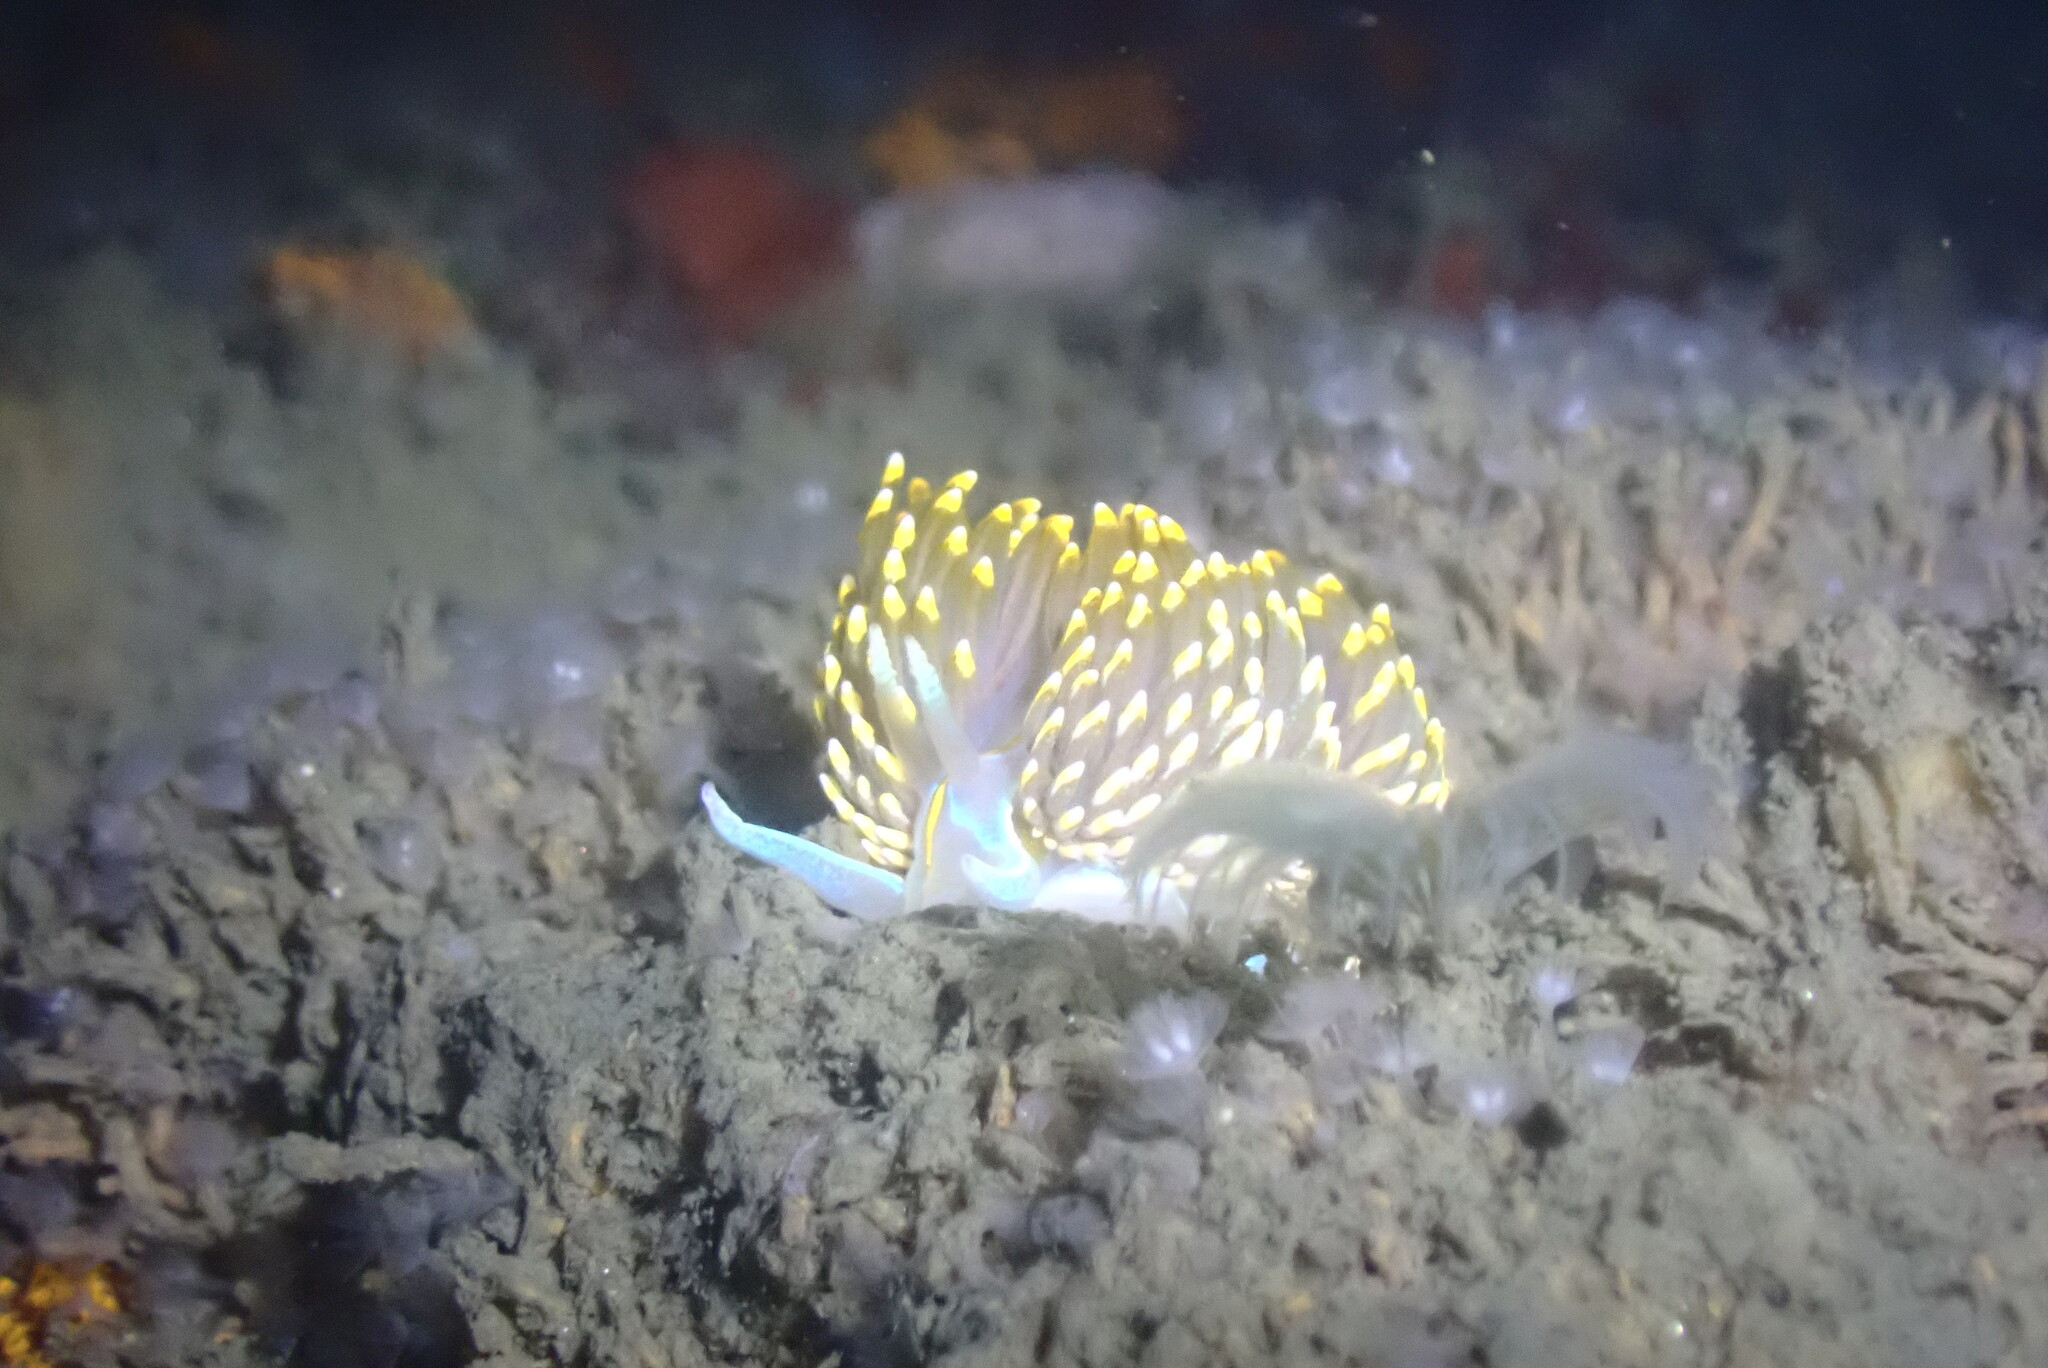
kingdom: Animalia
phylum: Mollusca
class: Gastropoda
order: Nudibranchia
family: Myrrhinidae
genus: Hermissenda
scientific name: Hermissenda opalescens
